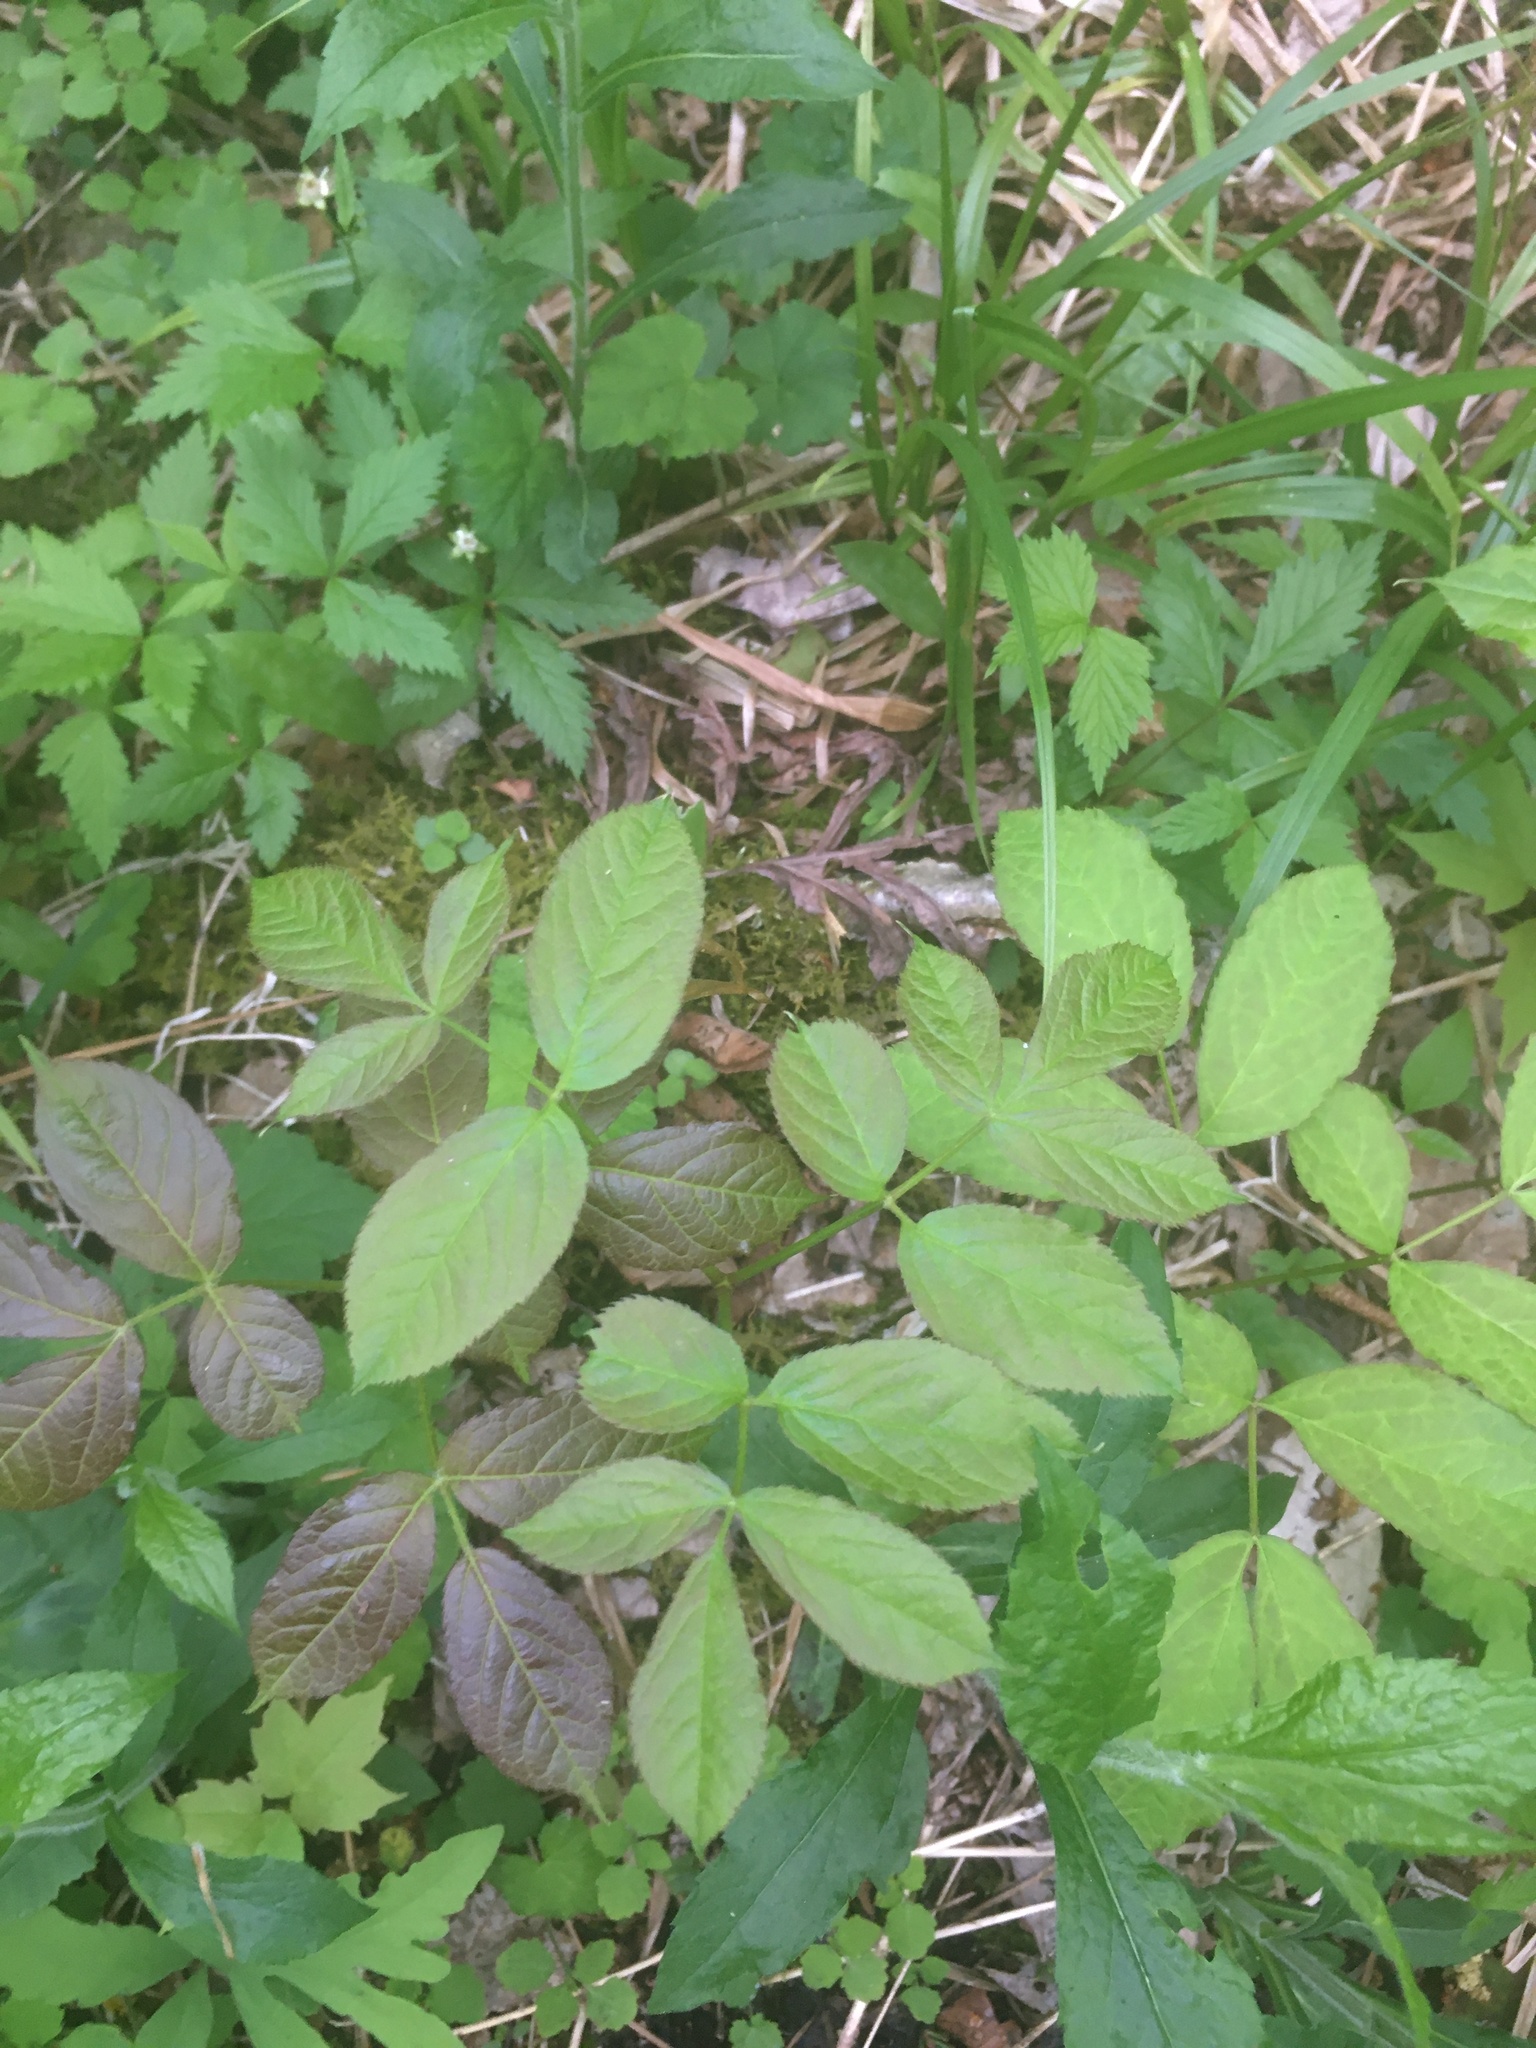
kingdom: Plantae
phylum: Tracheophyta
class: Magnoliopsida
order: Apiales
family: Araliaceae
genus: Aralia
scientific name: Aralia nudicaulis
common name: Wild sarsaparilla
